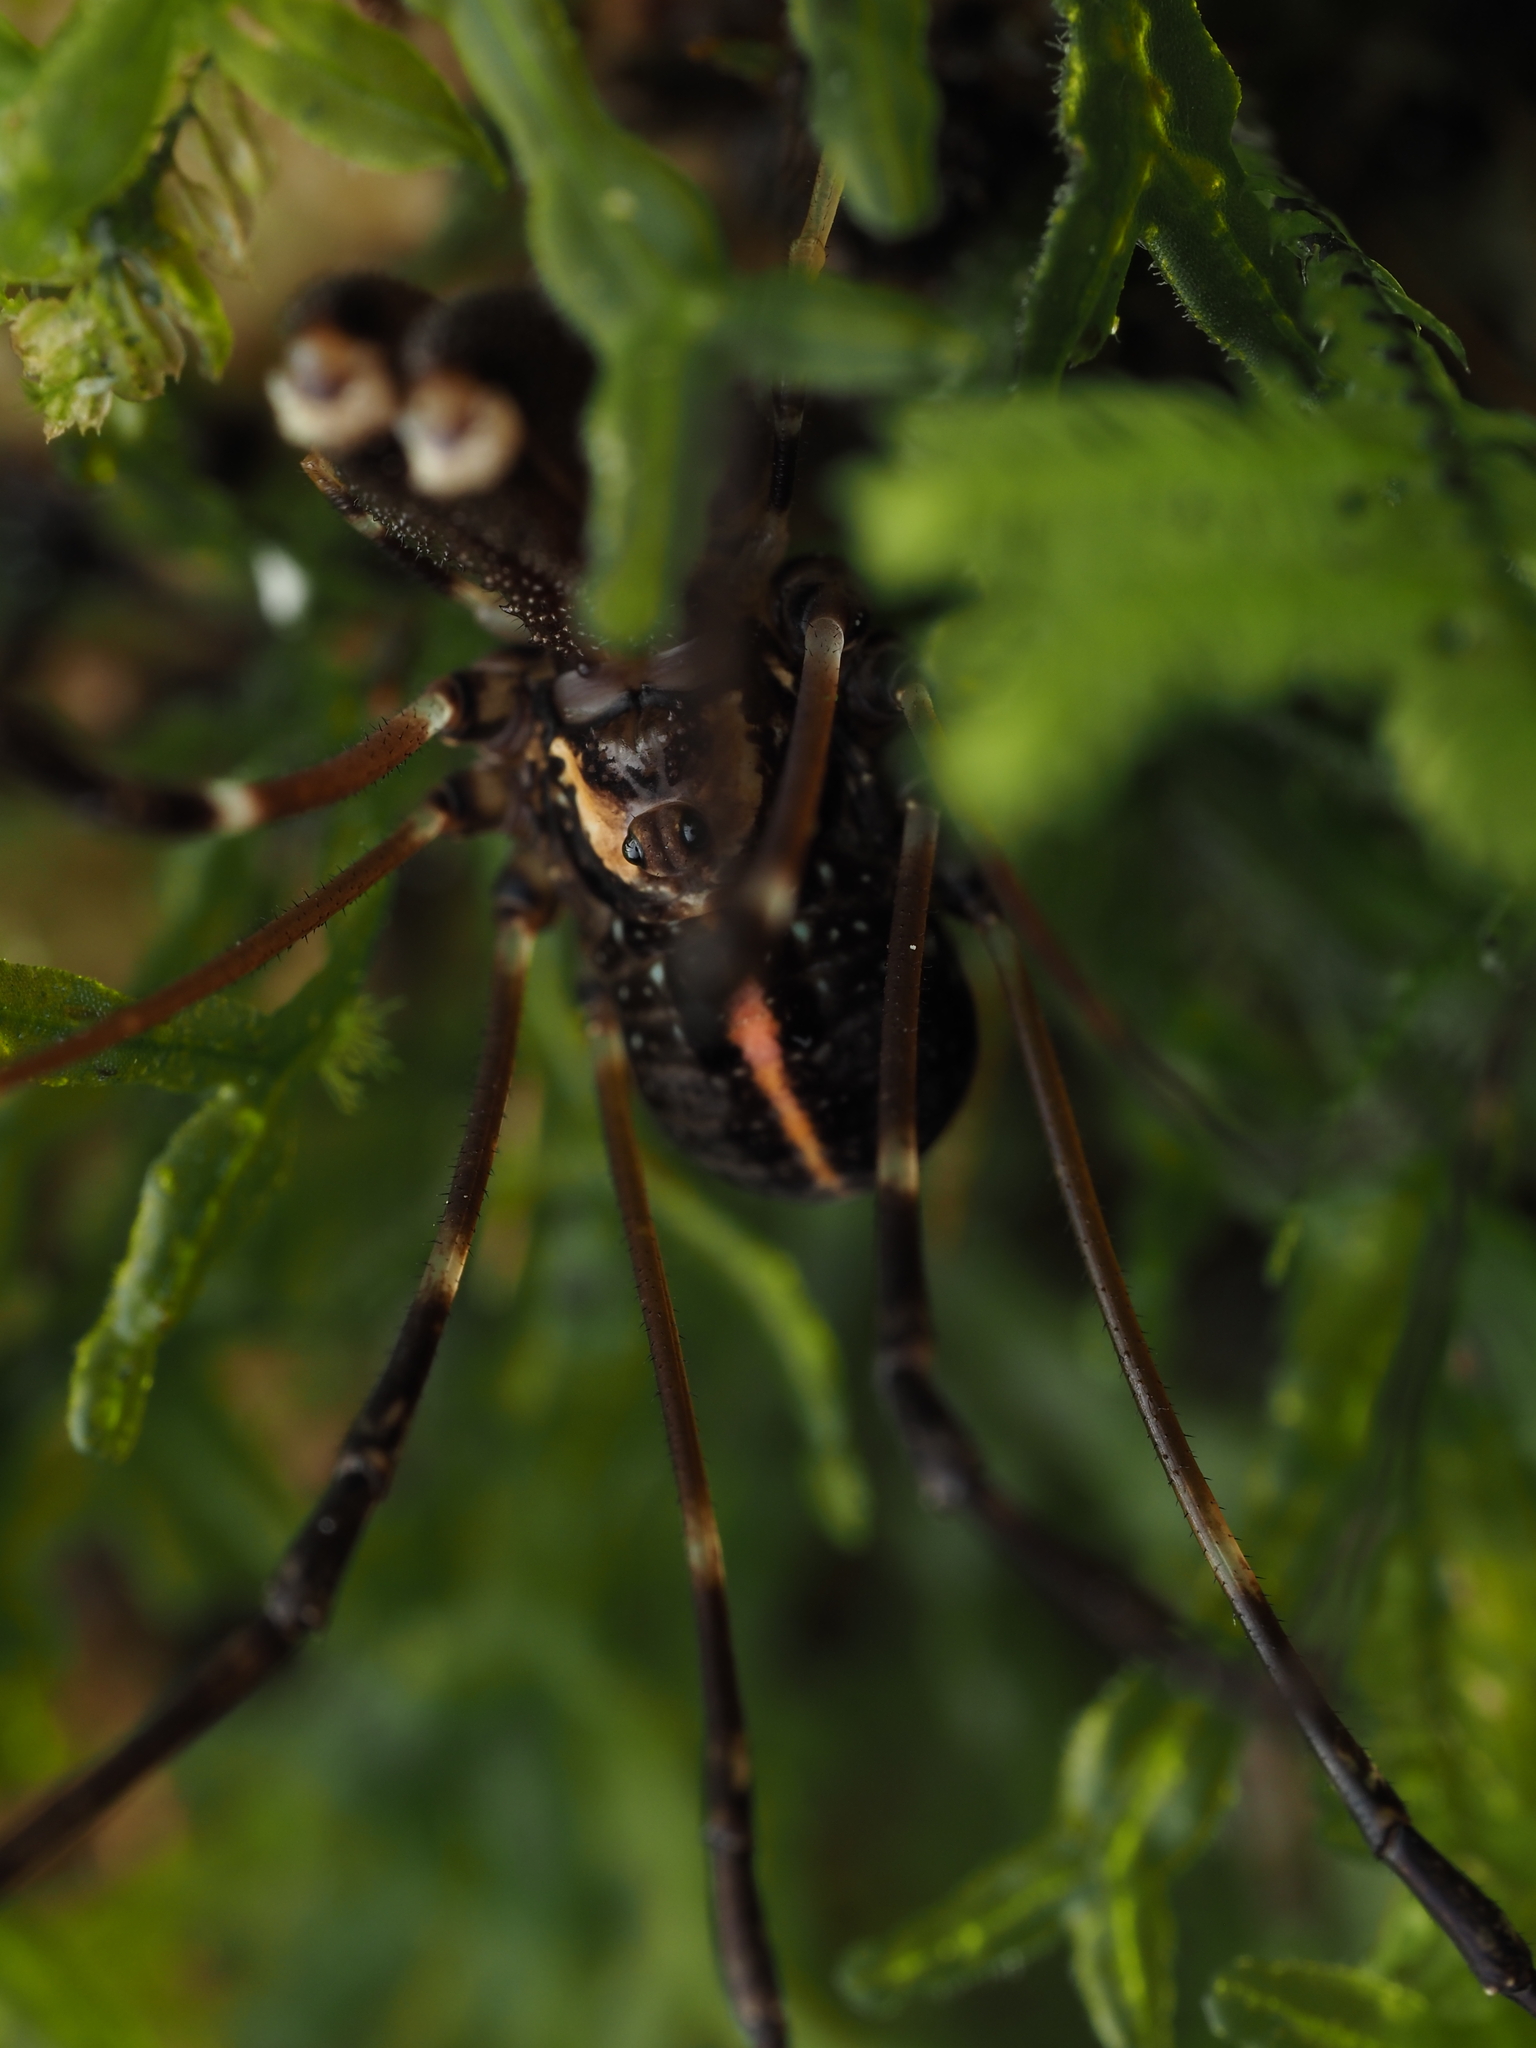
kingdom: Animalia
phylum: Arthropoda
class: Arachnida
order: Opiliones
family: Neopilionidae
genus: Forsteropsalis
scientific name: Forsteropsalis pureora
